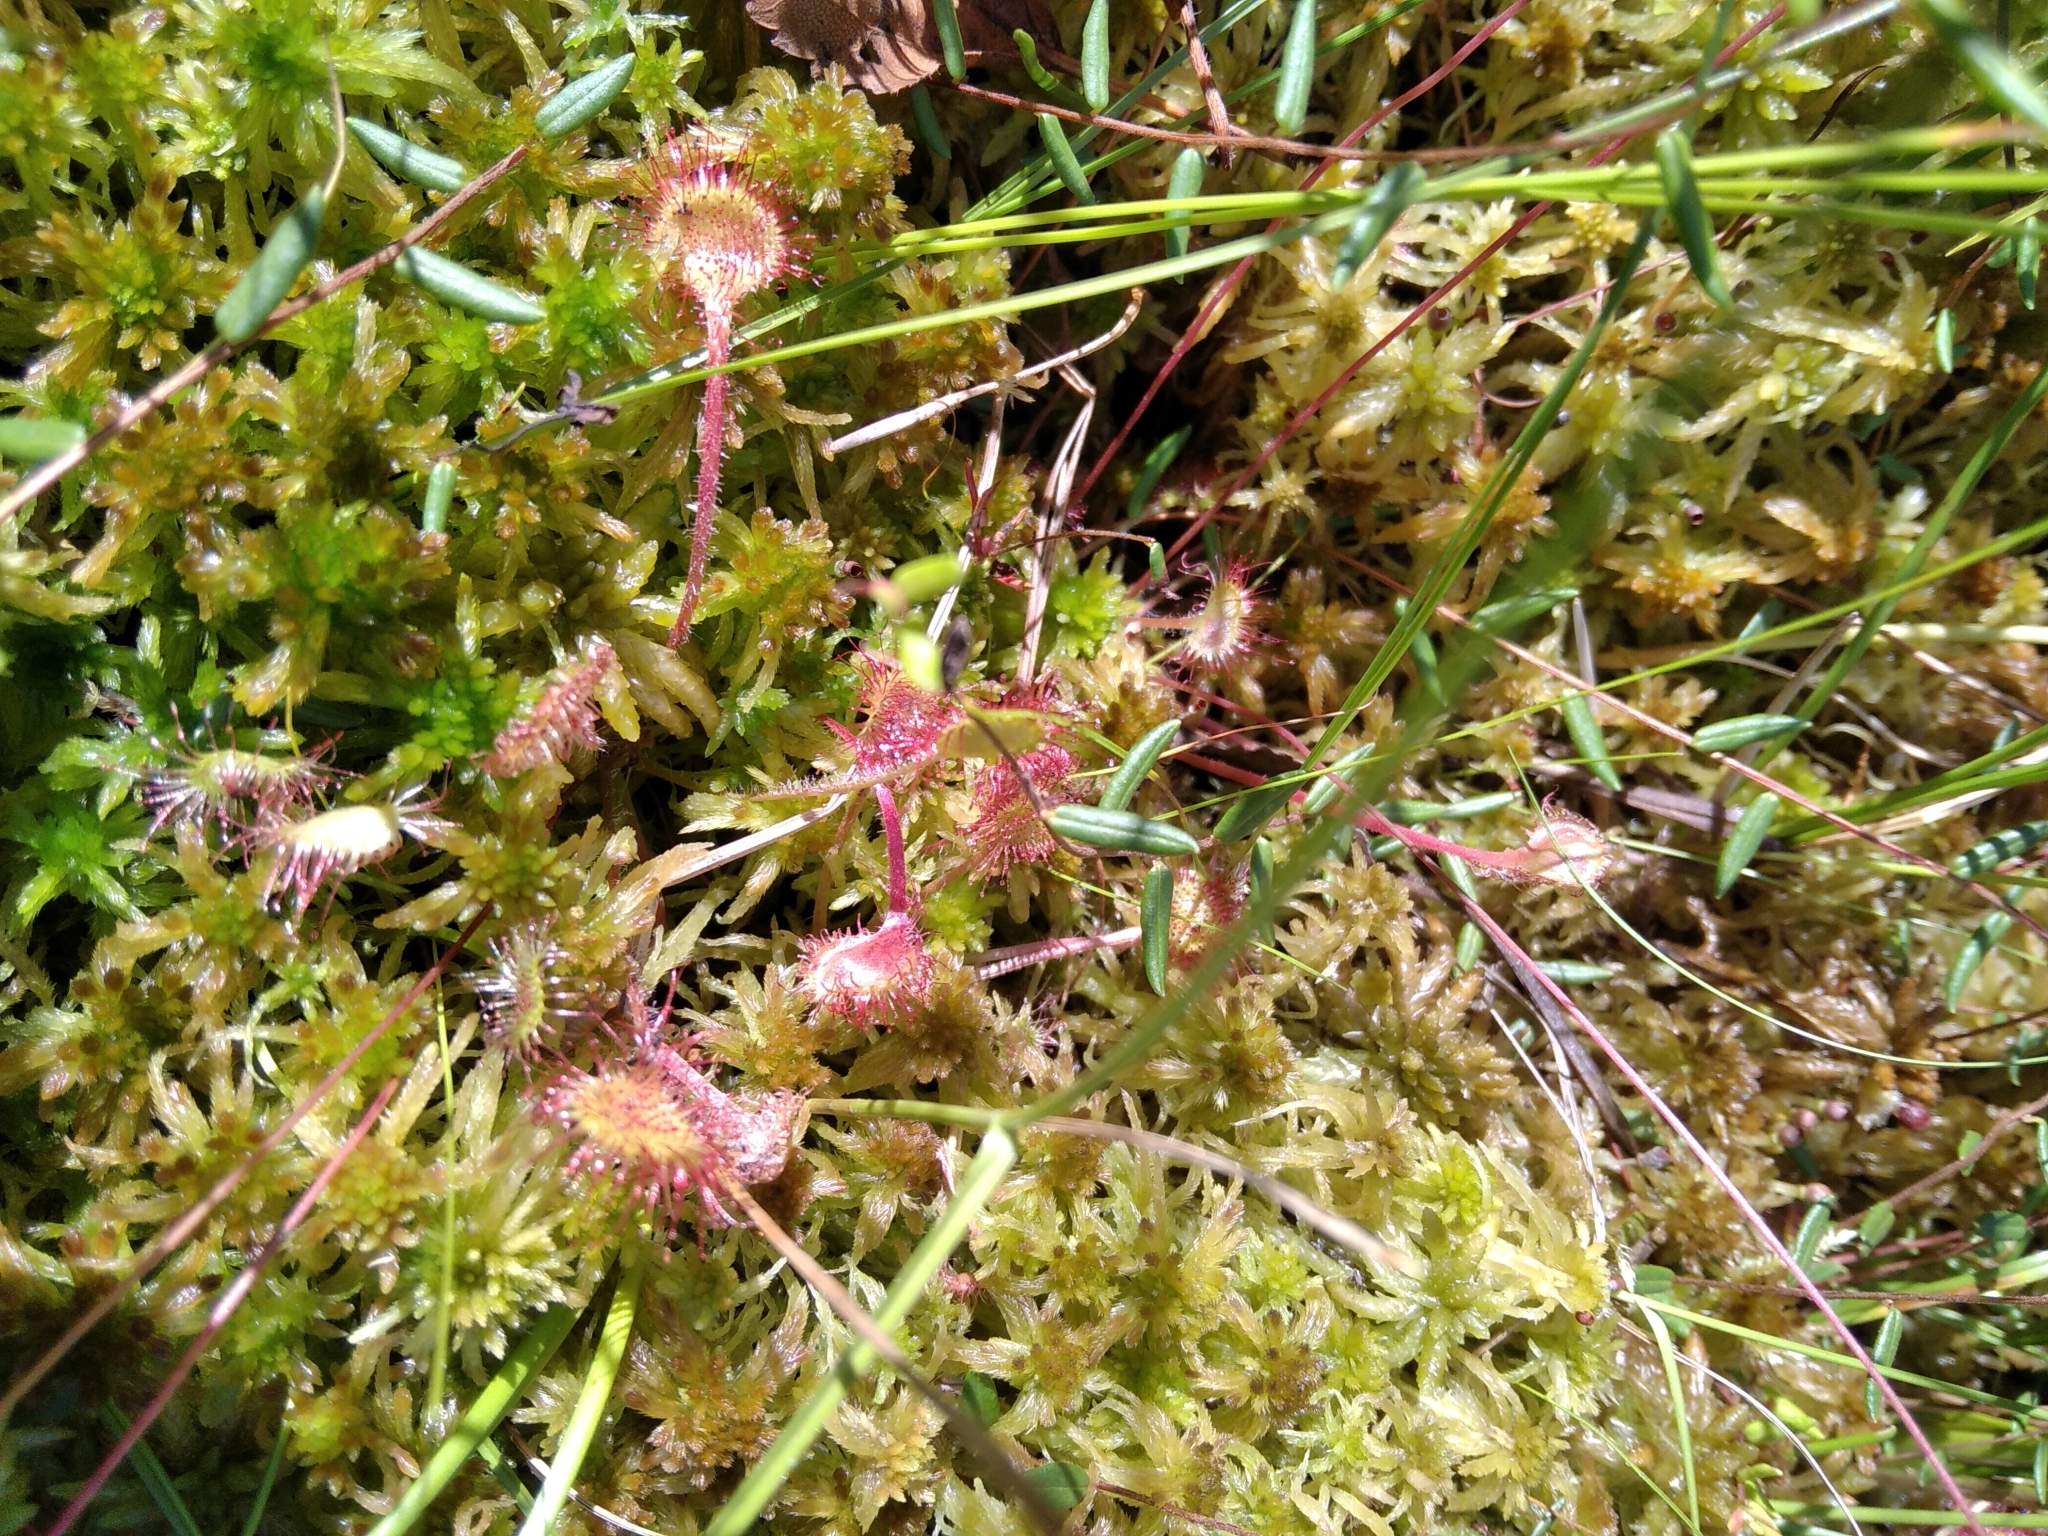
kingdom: Plantae
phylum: Tracheophyta
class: Magnoliopsida
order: Caryophyllales
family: Droseraceae
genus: Drosera
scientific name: Drosera rotundifolia
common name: Round-leaved sundew
